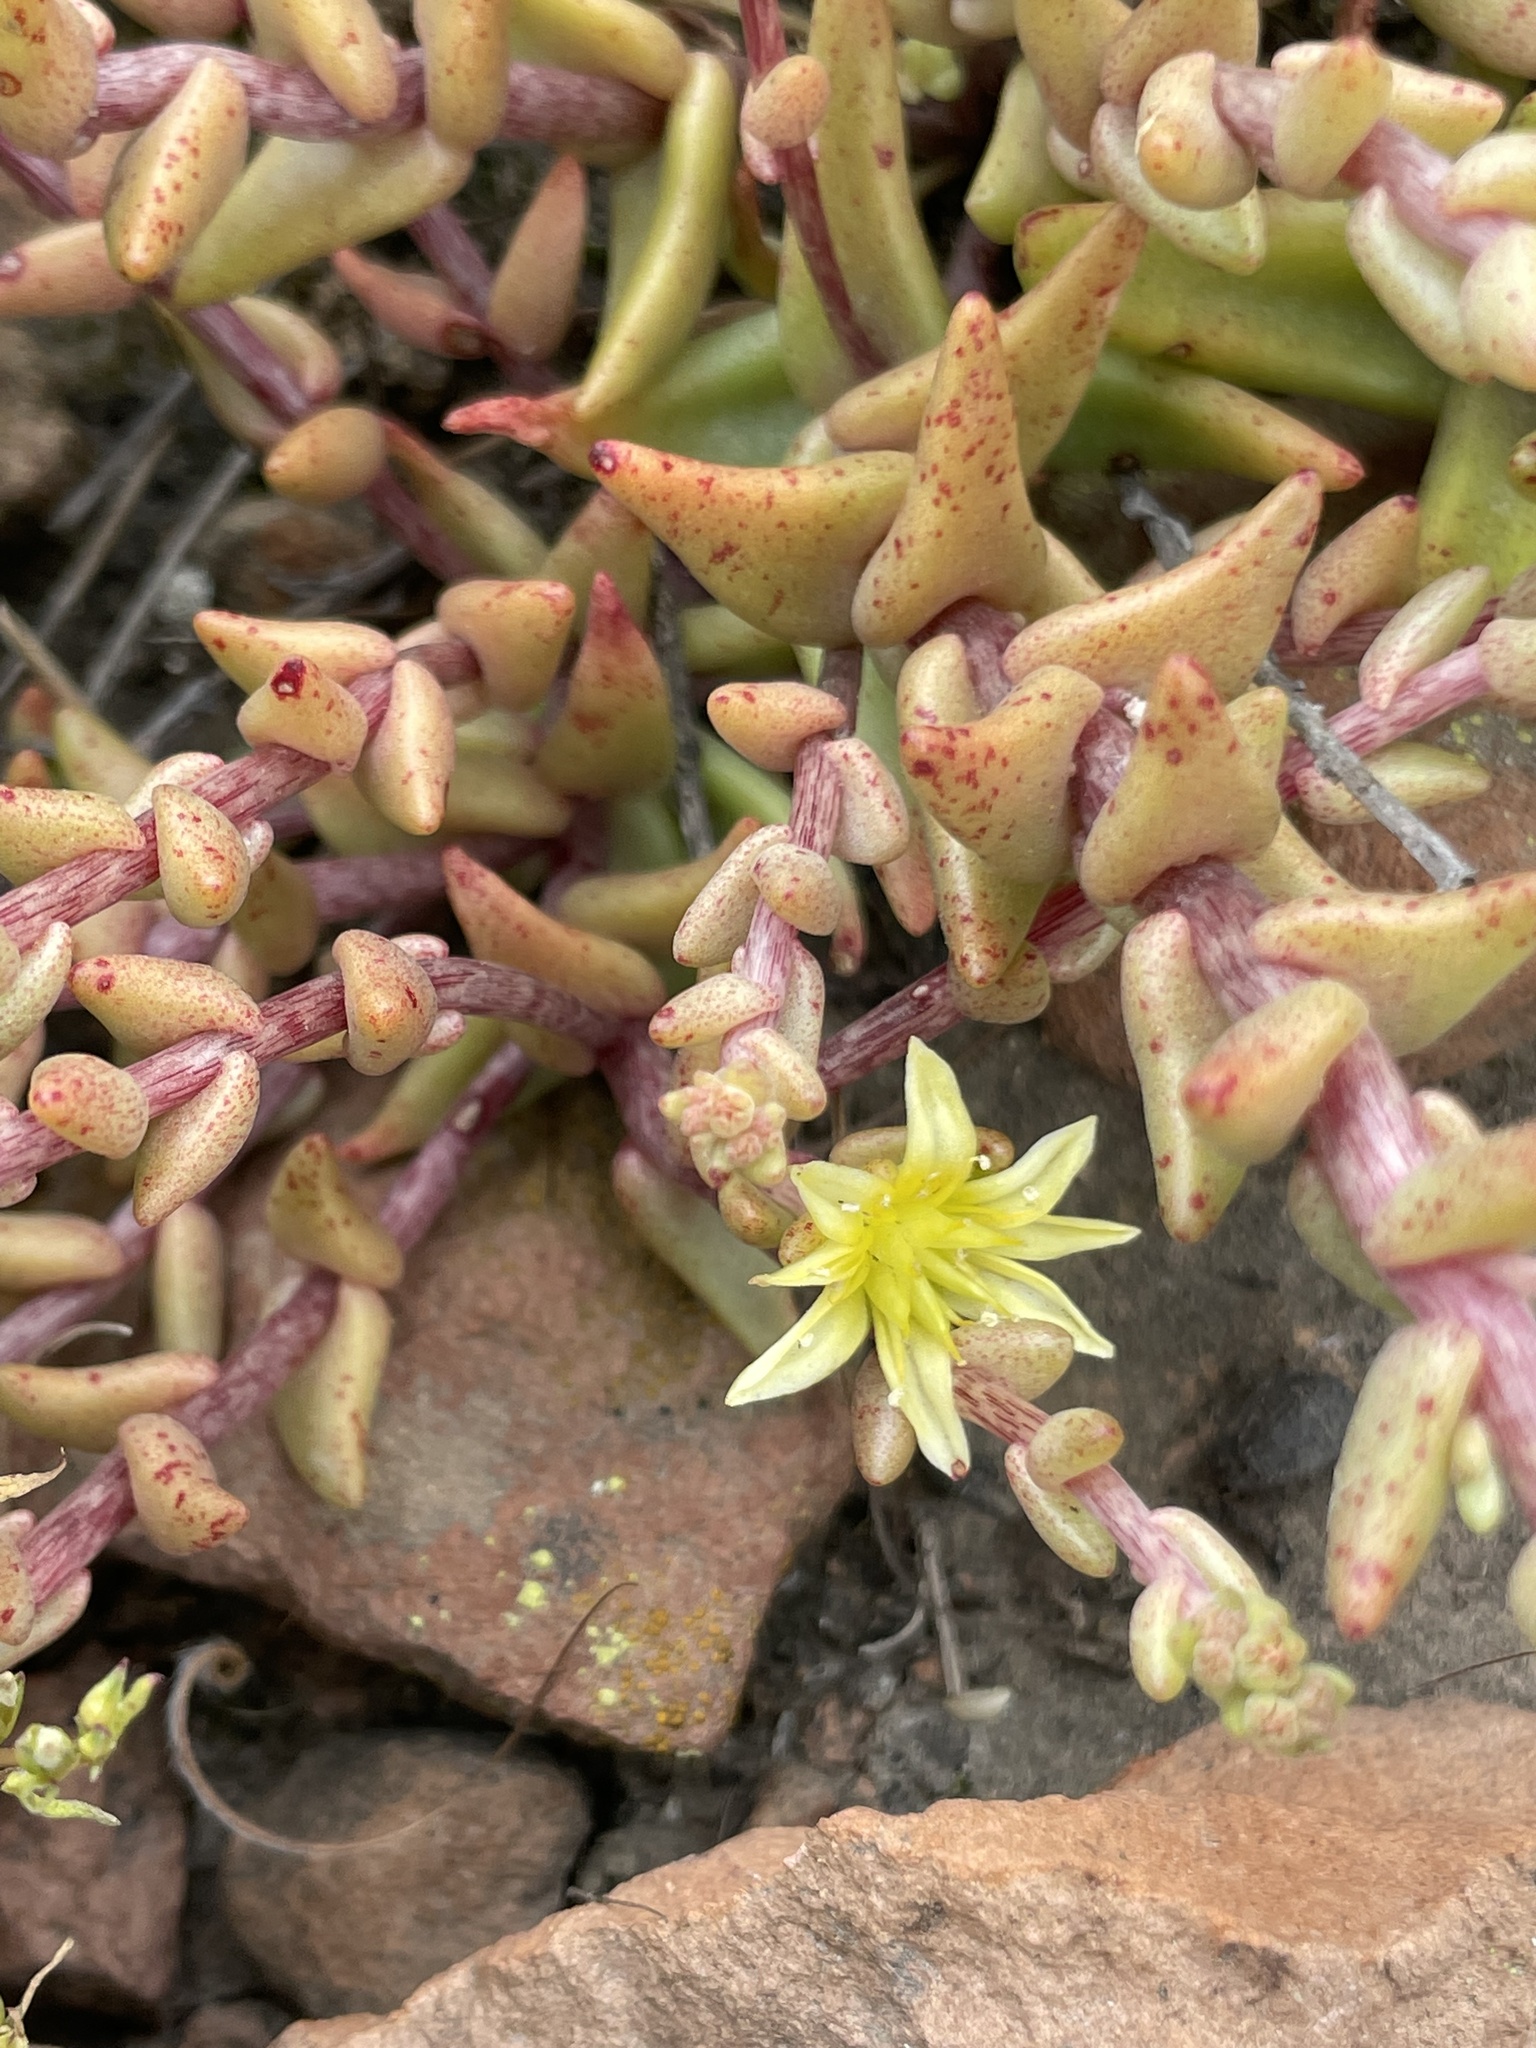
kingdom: Plantae
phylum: Tracheophyta
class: Magnoliopsida
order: Saxifragales
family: Crassulaceae
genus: Dudleya
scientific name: Dudleya variegata
